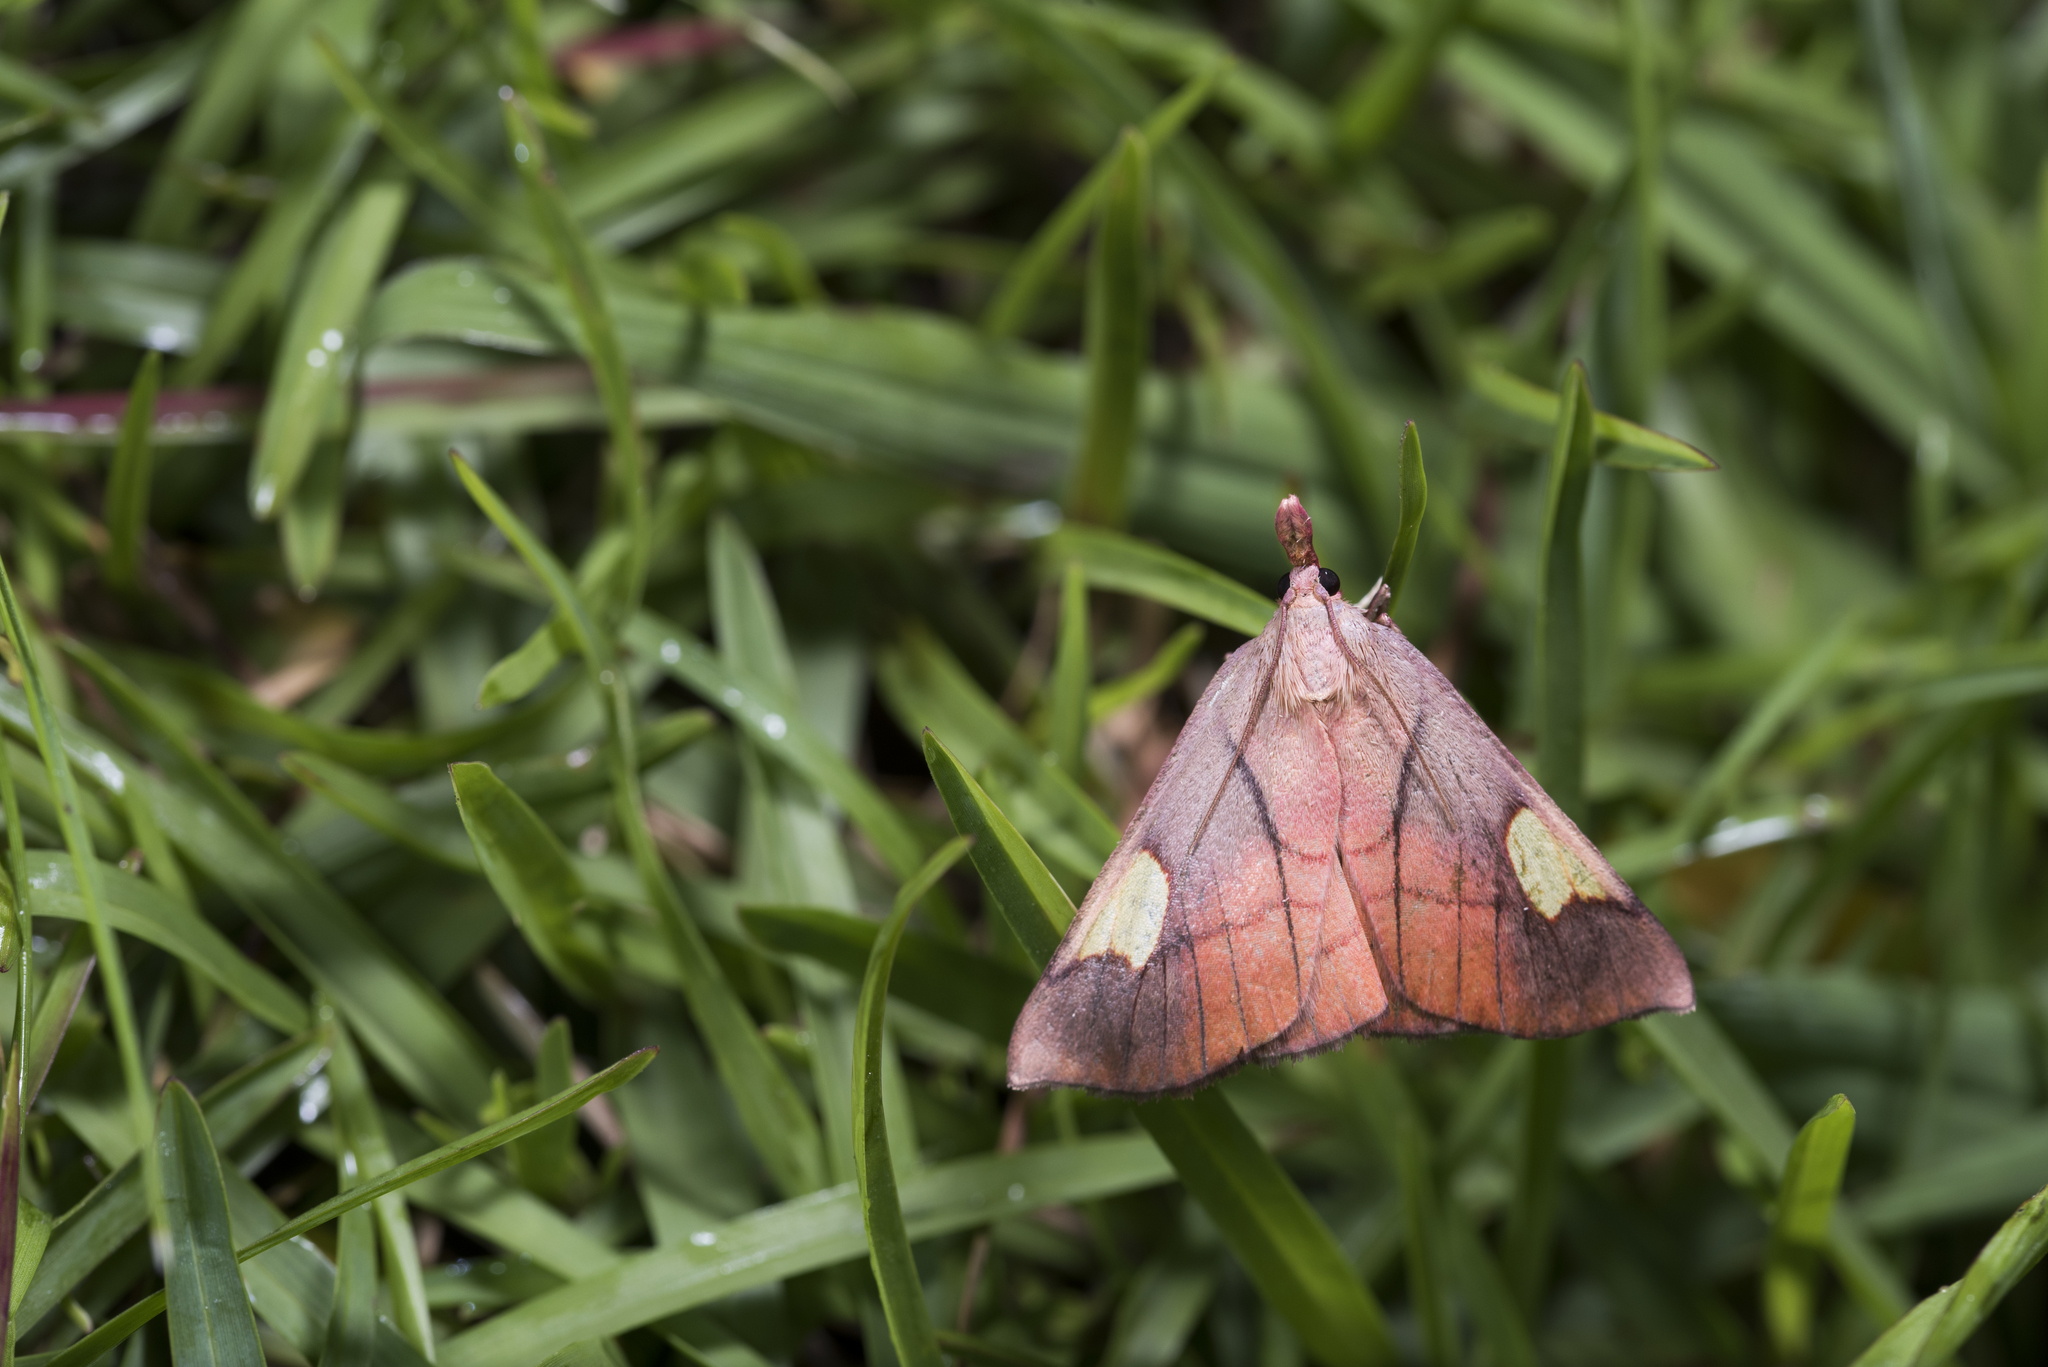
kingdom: Animalia
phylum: Arthropoda
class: Insecta
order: Lepidoptera
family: Pyralidae
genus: Orybina
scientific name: Orybina flaviplaga
